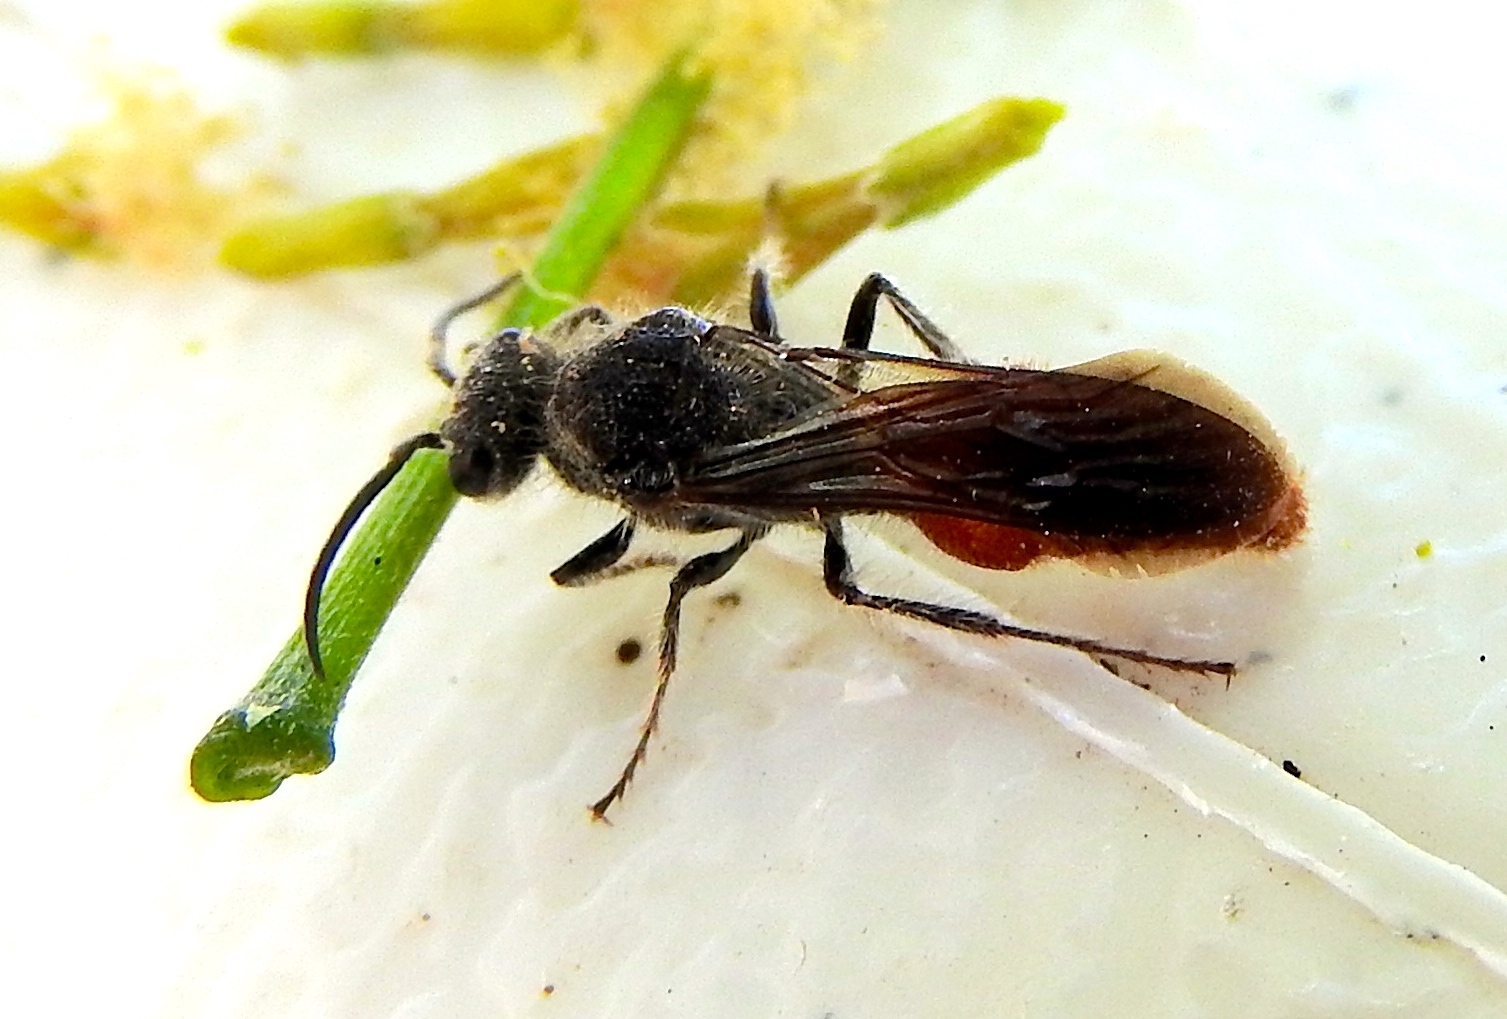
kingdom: Animalia
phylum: Arthropoda
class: Insecta
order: Hymenoptera
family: Mutillidae
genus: Timulla
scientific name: Timulla
